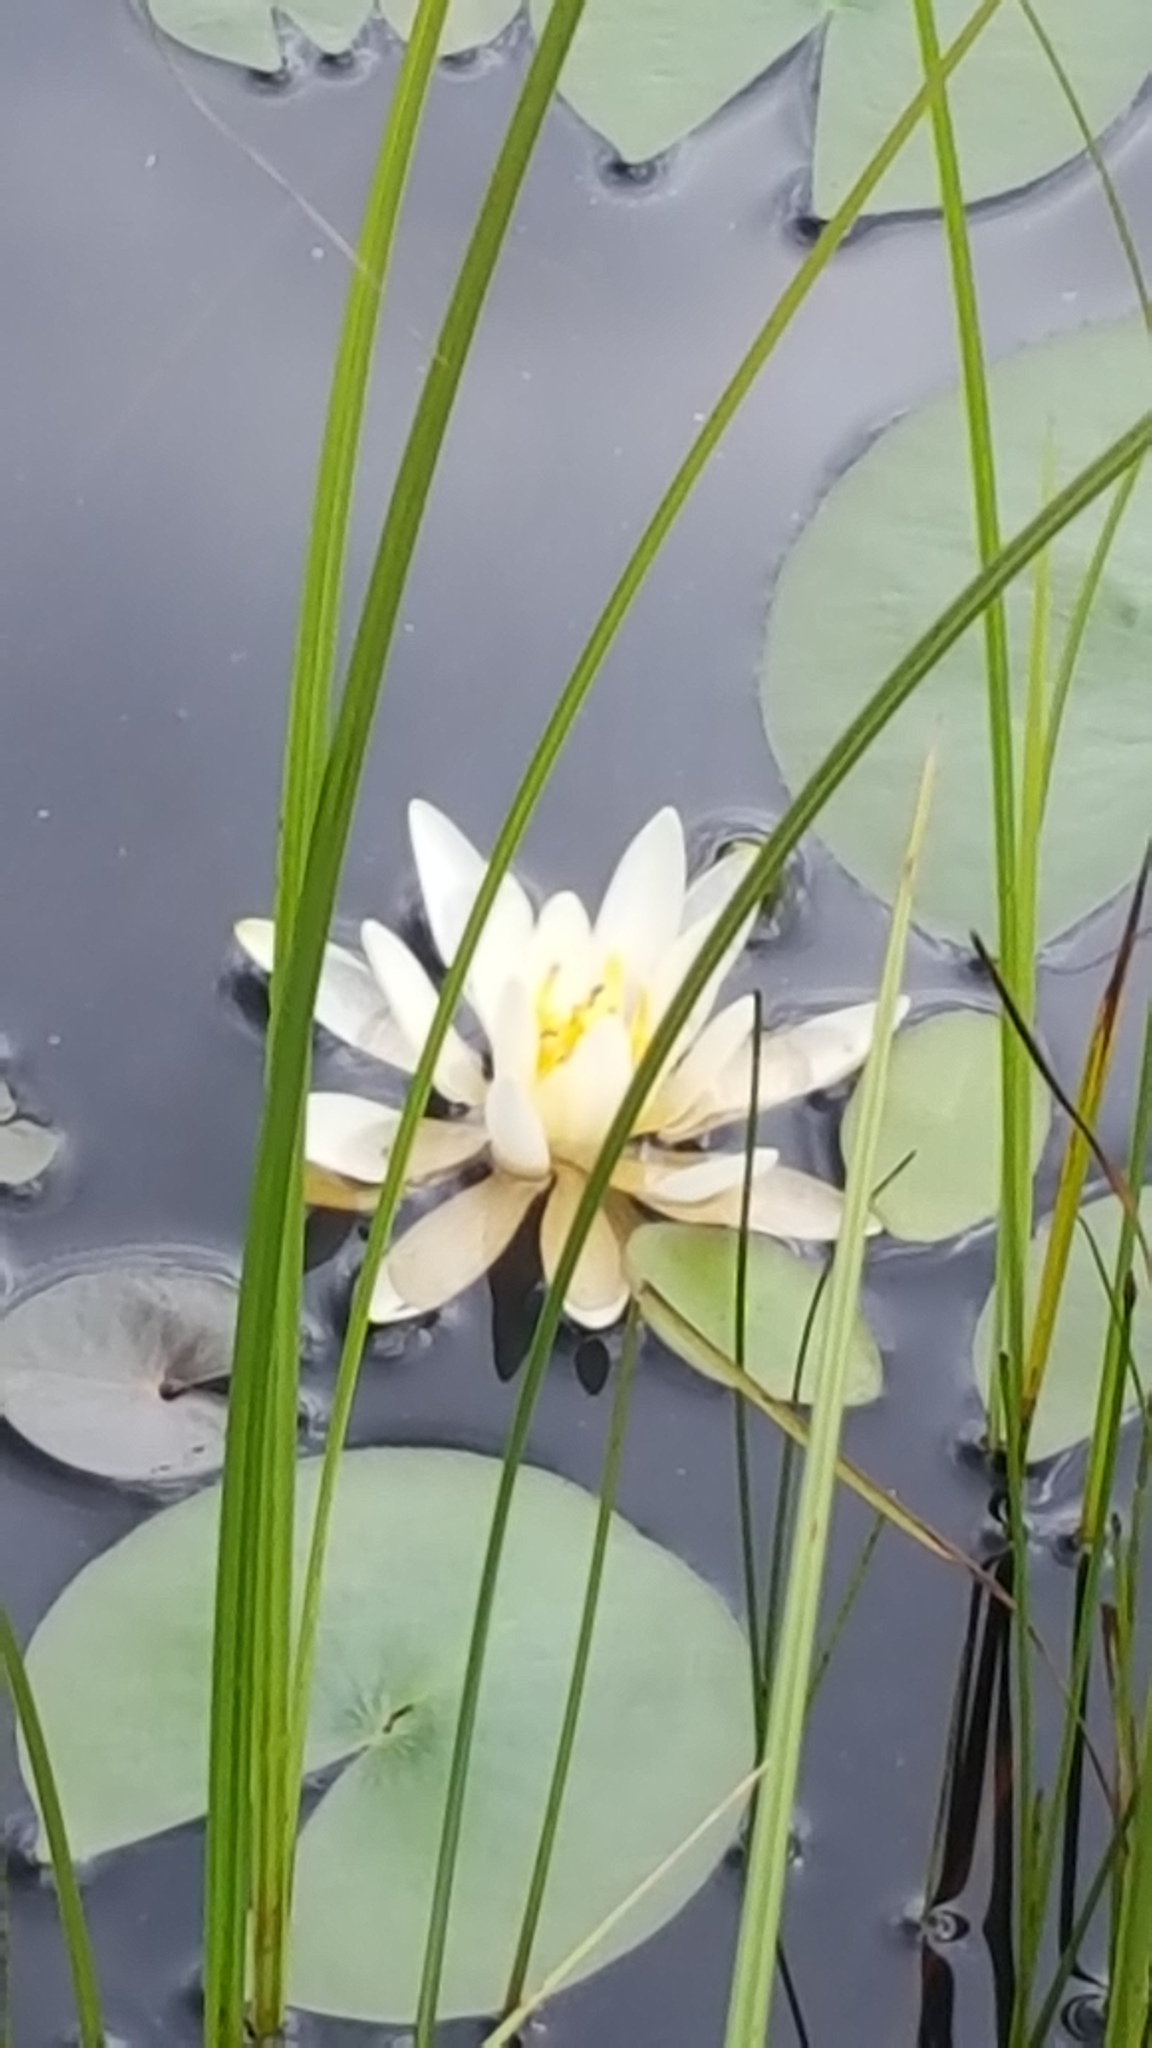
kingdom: Plantae
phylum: Tracheophyta
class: Magnoliopsida
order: Nymphaeales
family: Nymphaeaceae
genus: Nymphaea
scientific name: Nymphaea odorata
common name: Fragrant water-lily
